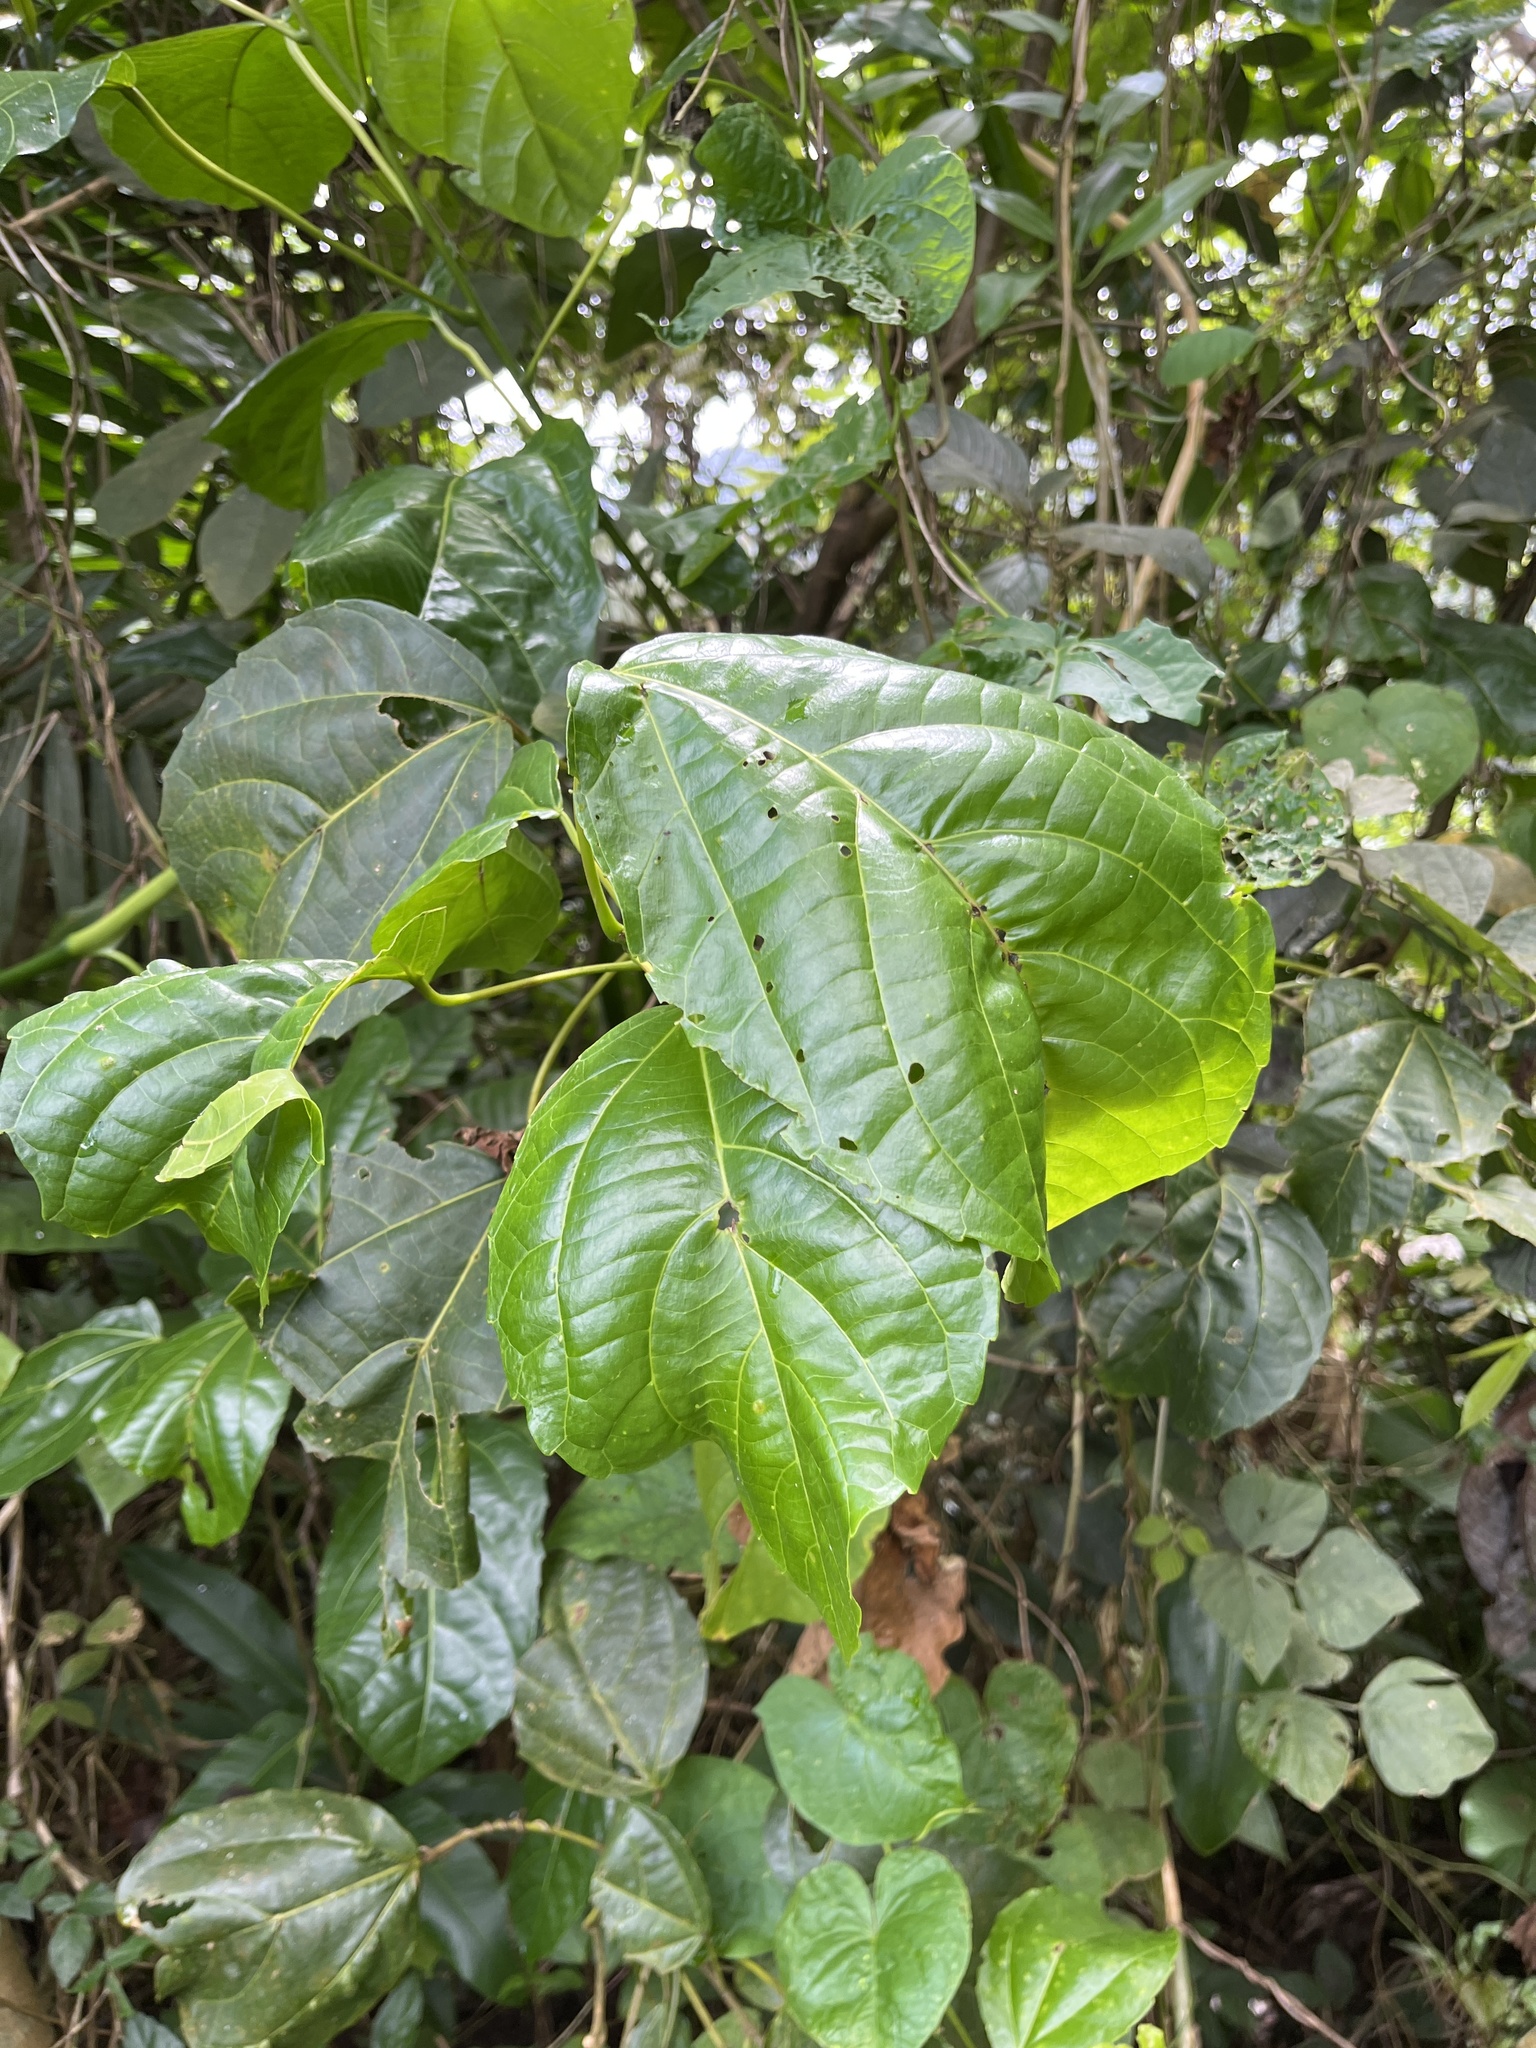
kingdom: Plantae
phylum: Tracheophyta
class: Magnoliopsida
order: Malpighiales
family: Euphorbiaceae
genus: Alchornea
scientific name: Alchornea latifolia
